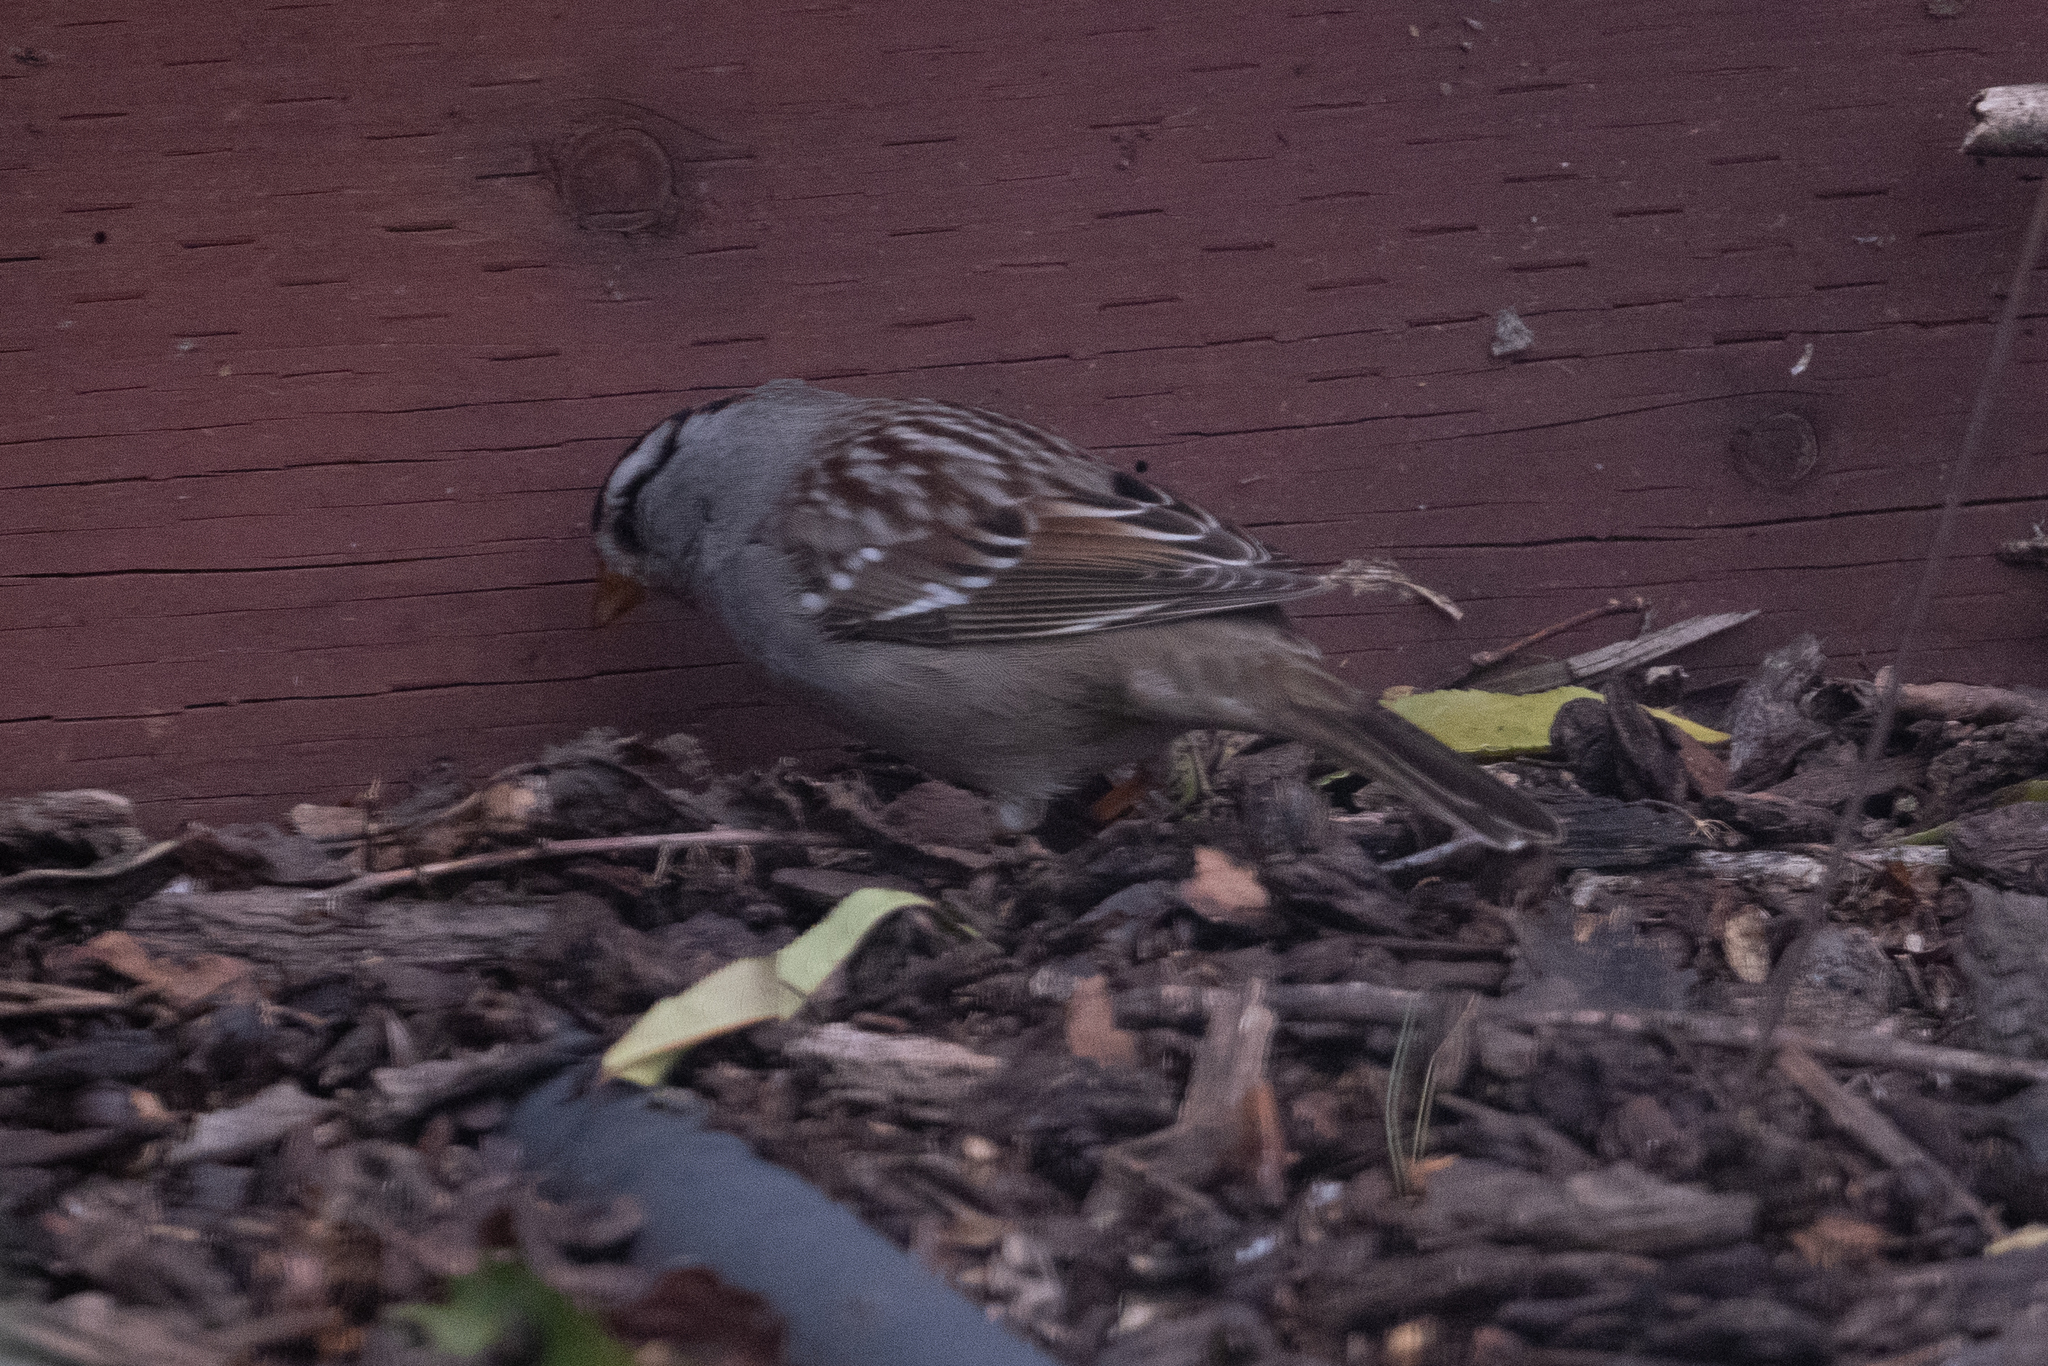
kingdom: Animalia
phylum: Chordata
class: Aves
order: Passeriformes
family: Passerellidae
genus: Zonotrichia
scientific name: Zonotrichia leucophrys
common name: White-crowned sparrow
